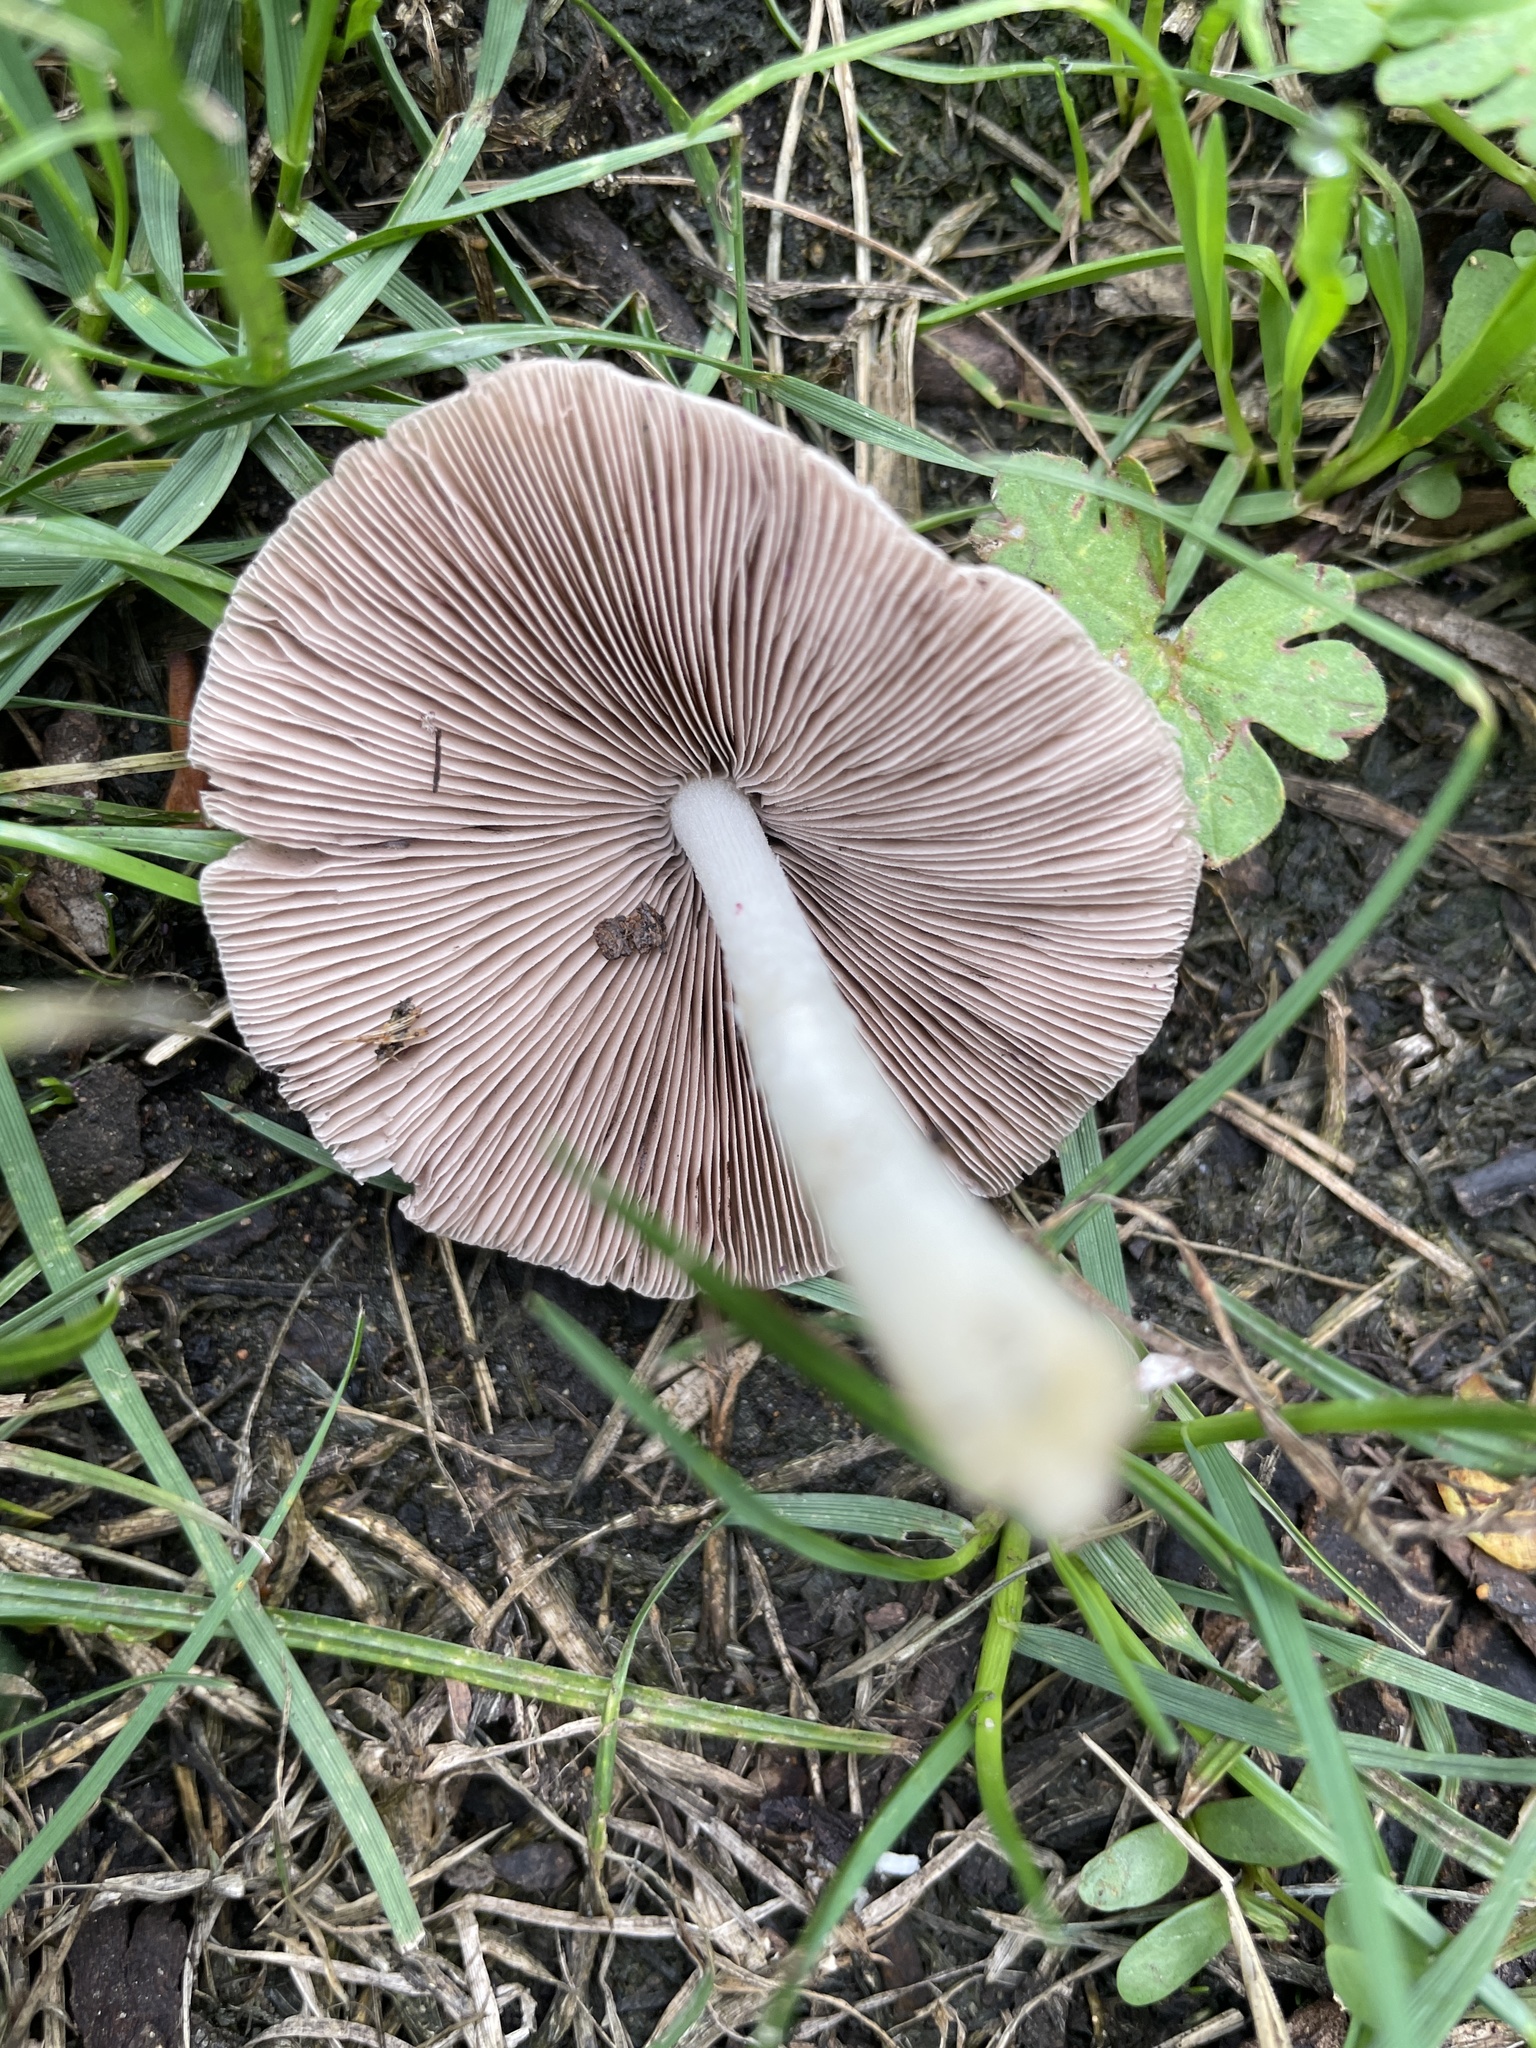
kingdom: Fungi
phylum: Basidiomycota
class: Agaricomycetes
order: Agaricales
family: Psathyrellaceae
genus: Candolleomyces
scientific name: Candolleomyces candolleanus
